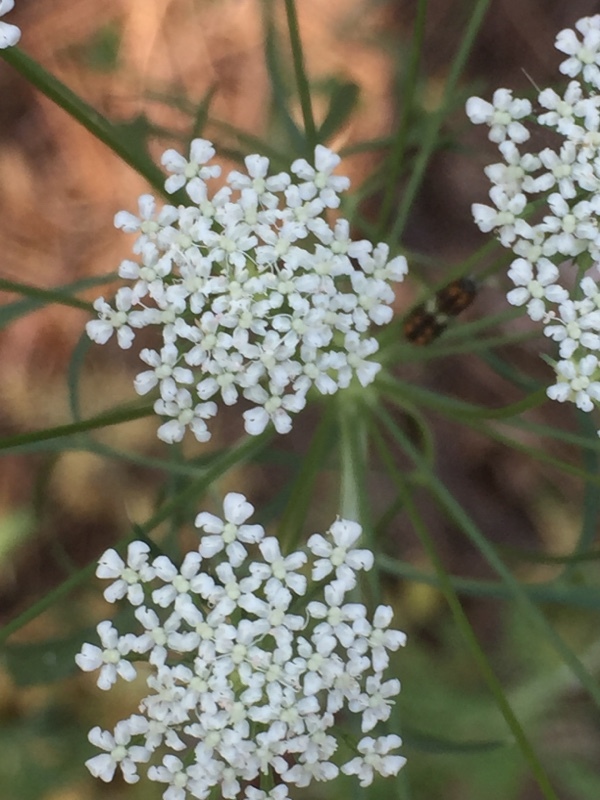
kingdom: Plantae
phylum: Tracheophyta
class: Magnoliopsida
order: Apiales
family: Apiaceae
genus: Ammi
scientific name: Ammi majus
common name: Bullwort
